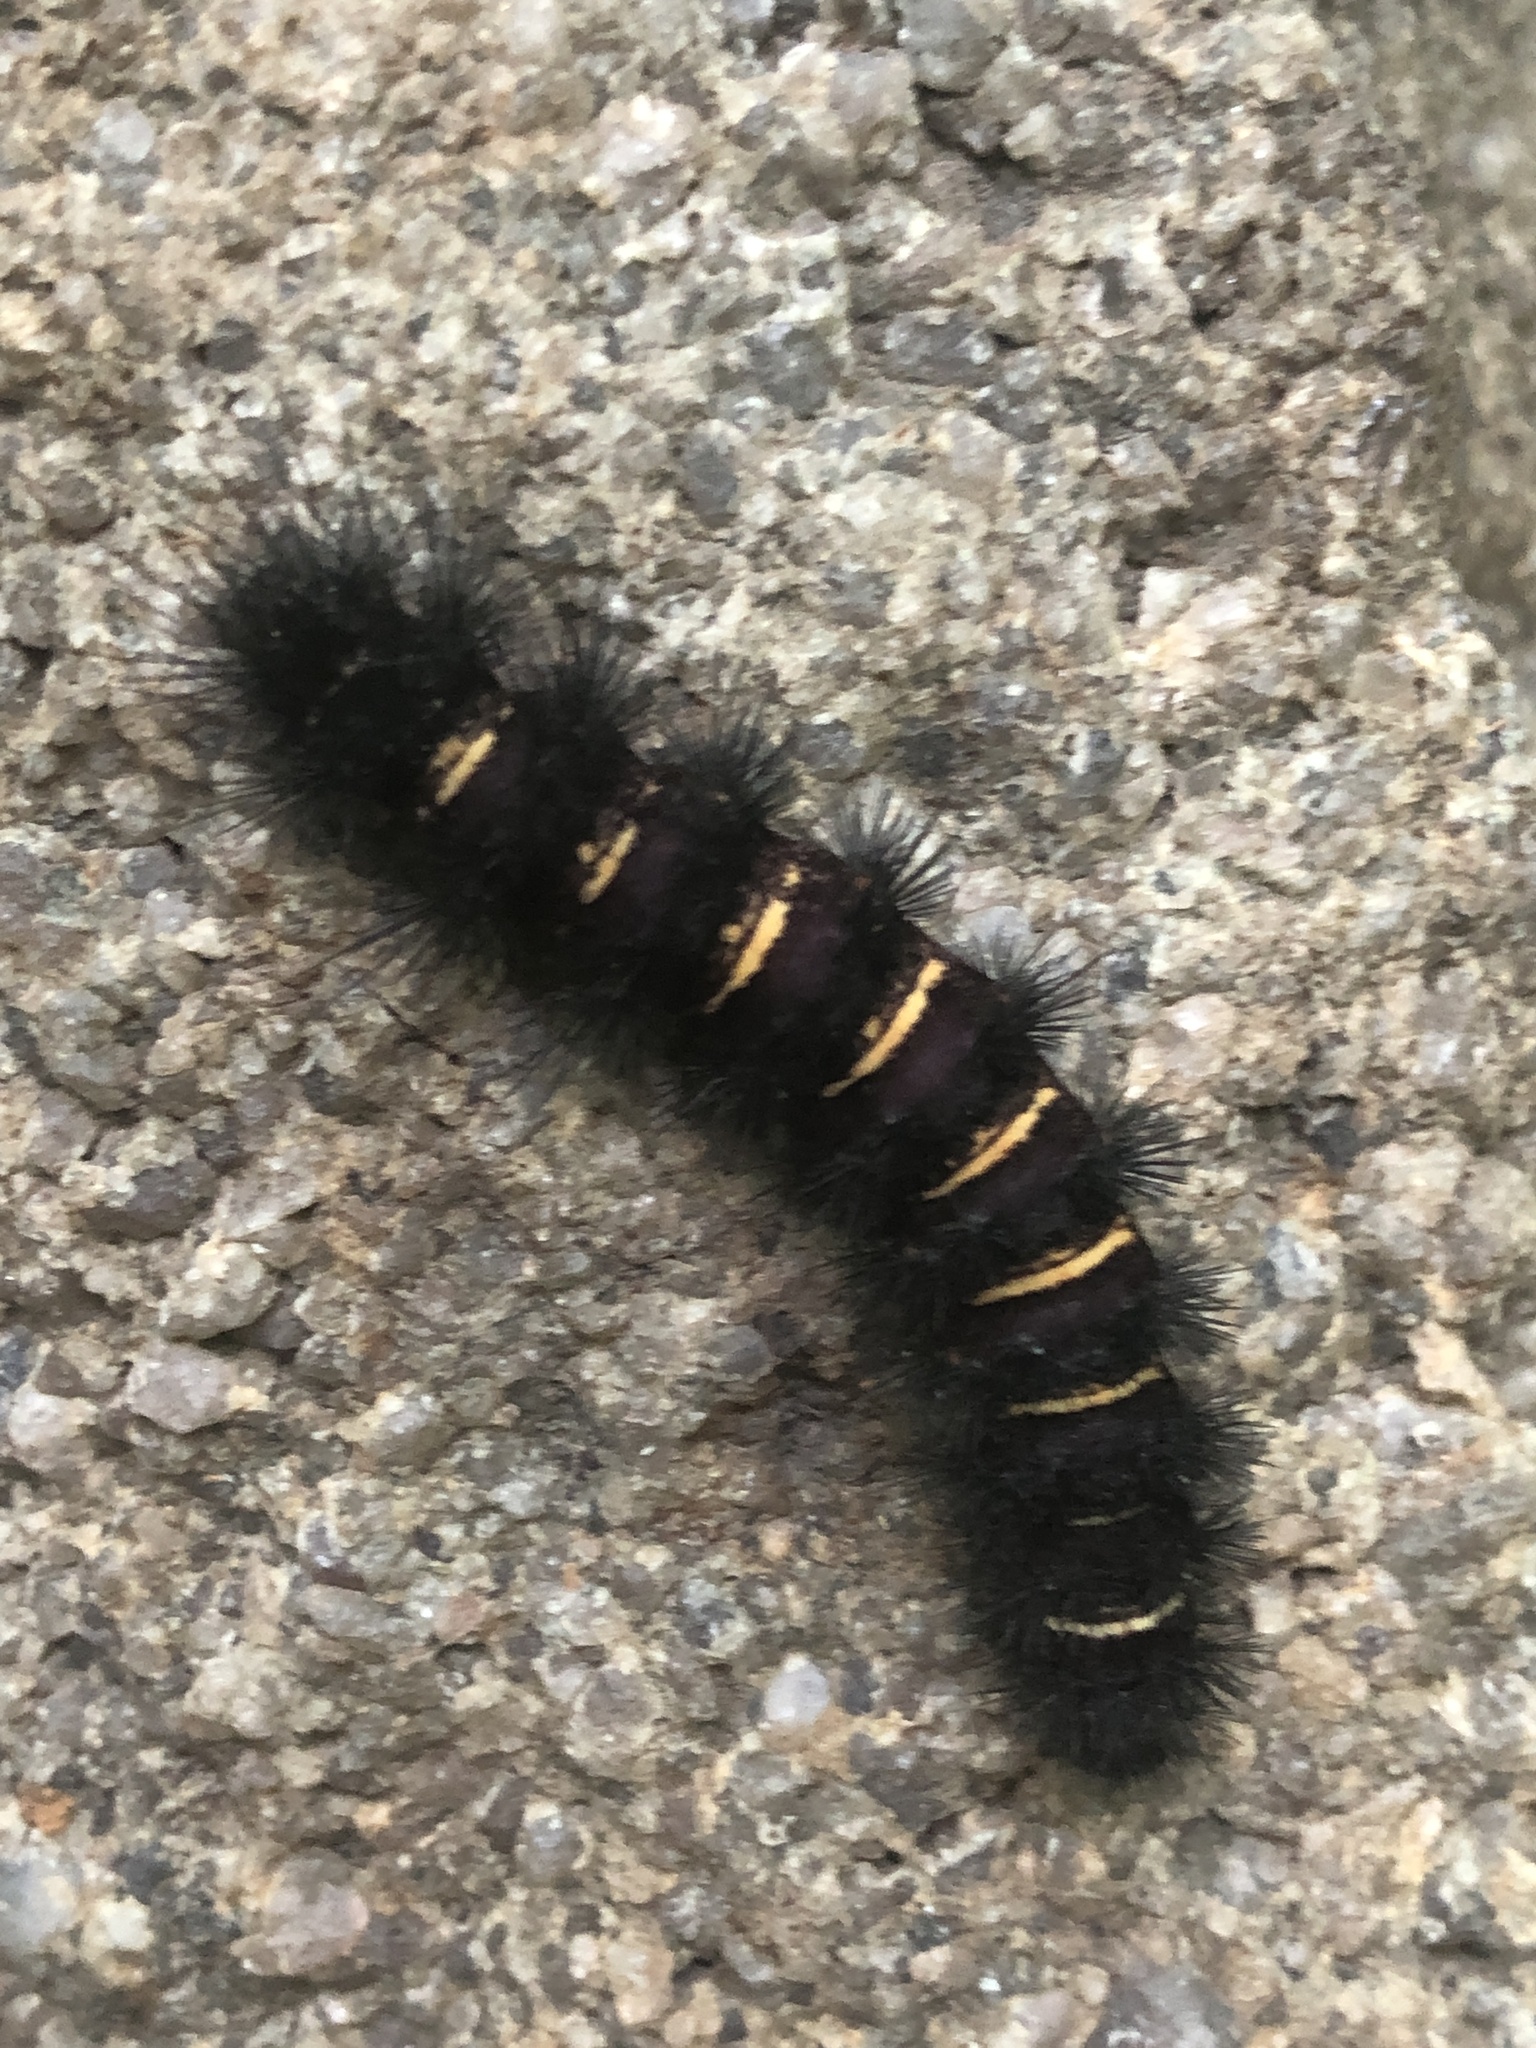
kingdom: Animalia
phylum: Arthropoda
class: Insecta
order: Lepidoptera
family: Erebidae
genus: Spilosoma
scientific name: Spilosoma congrua
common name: Agreeable tiger moth
